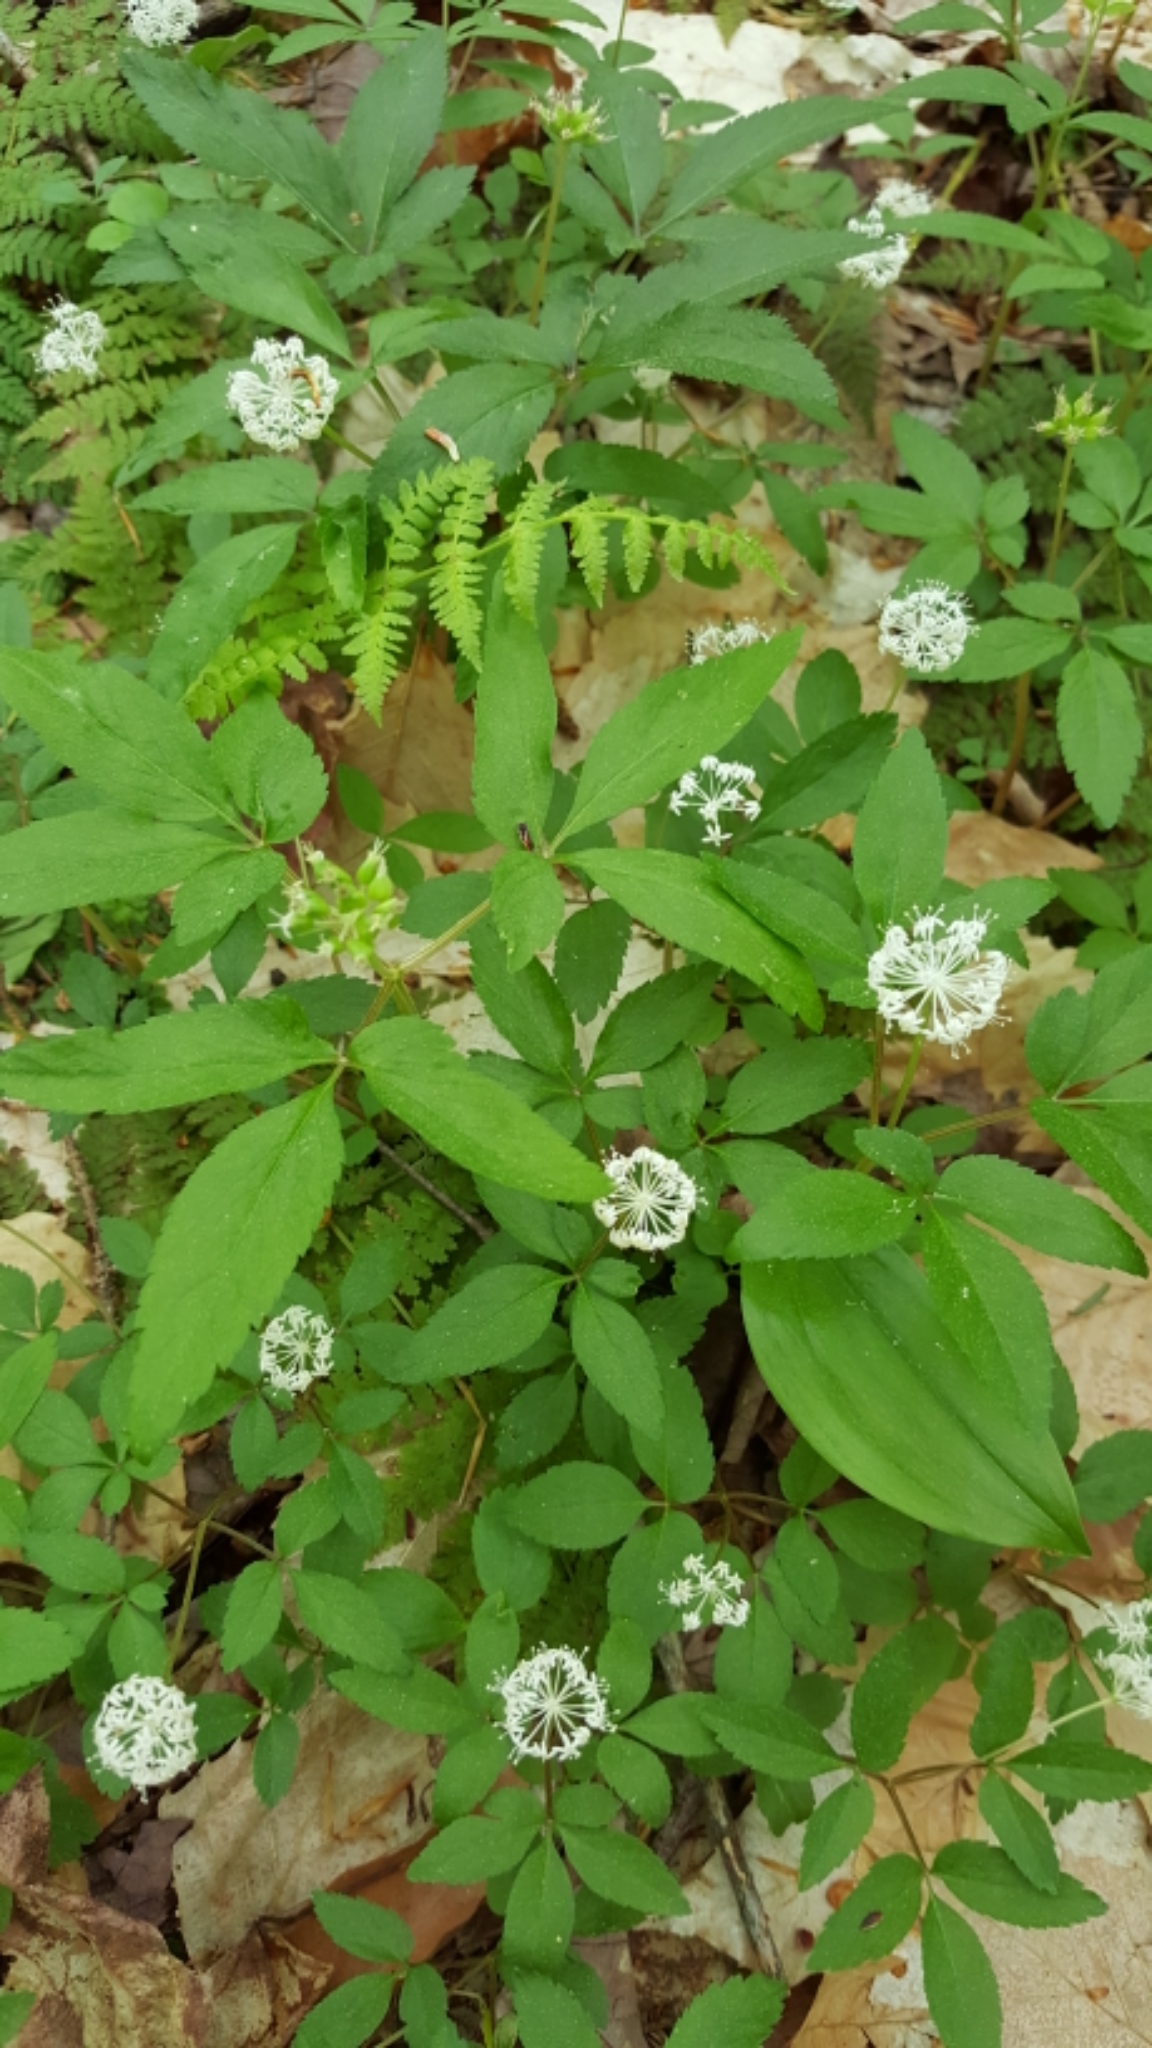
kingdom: Plantae
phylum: Tracheophyta
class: Magnoliopsida
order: Apiales
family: Araliaceae
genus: Panax
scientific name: Panax trifolius
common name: Dwarf ginseng
